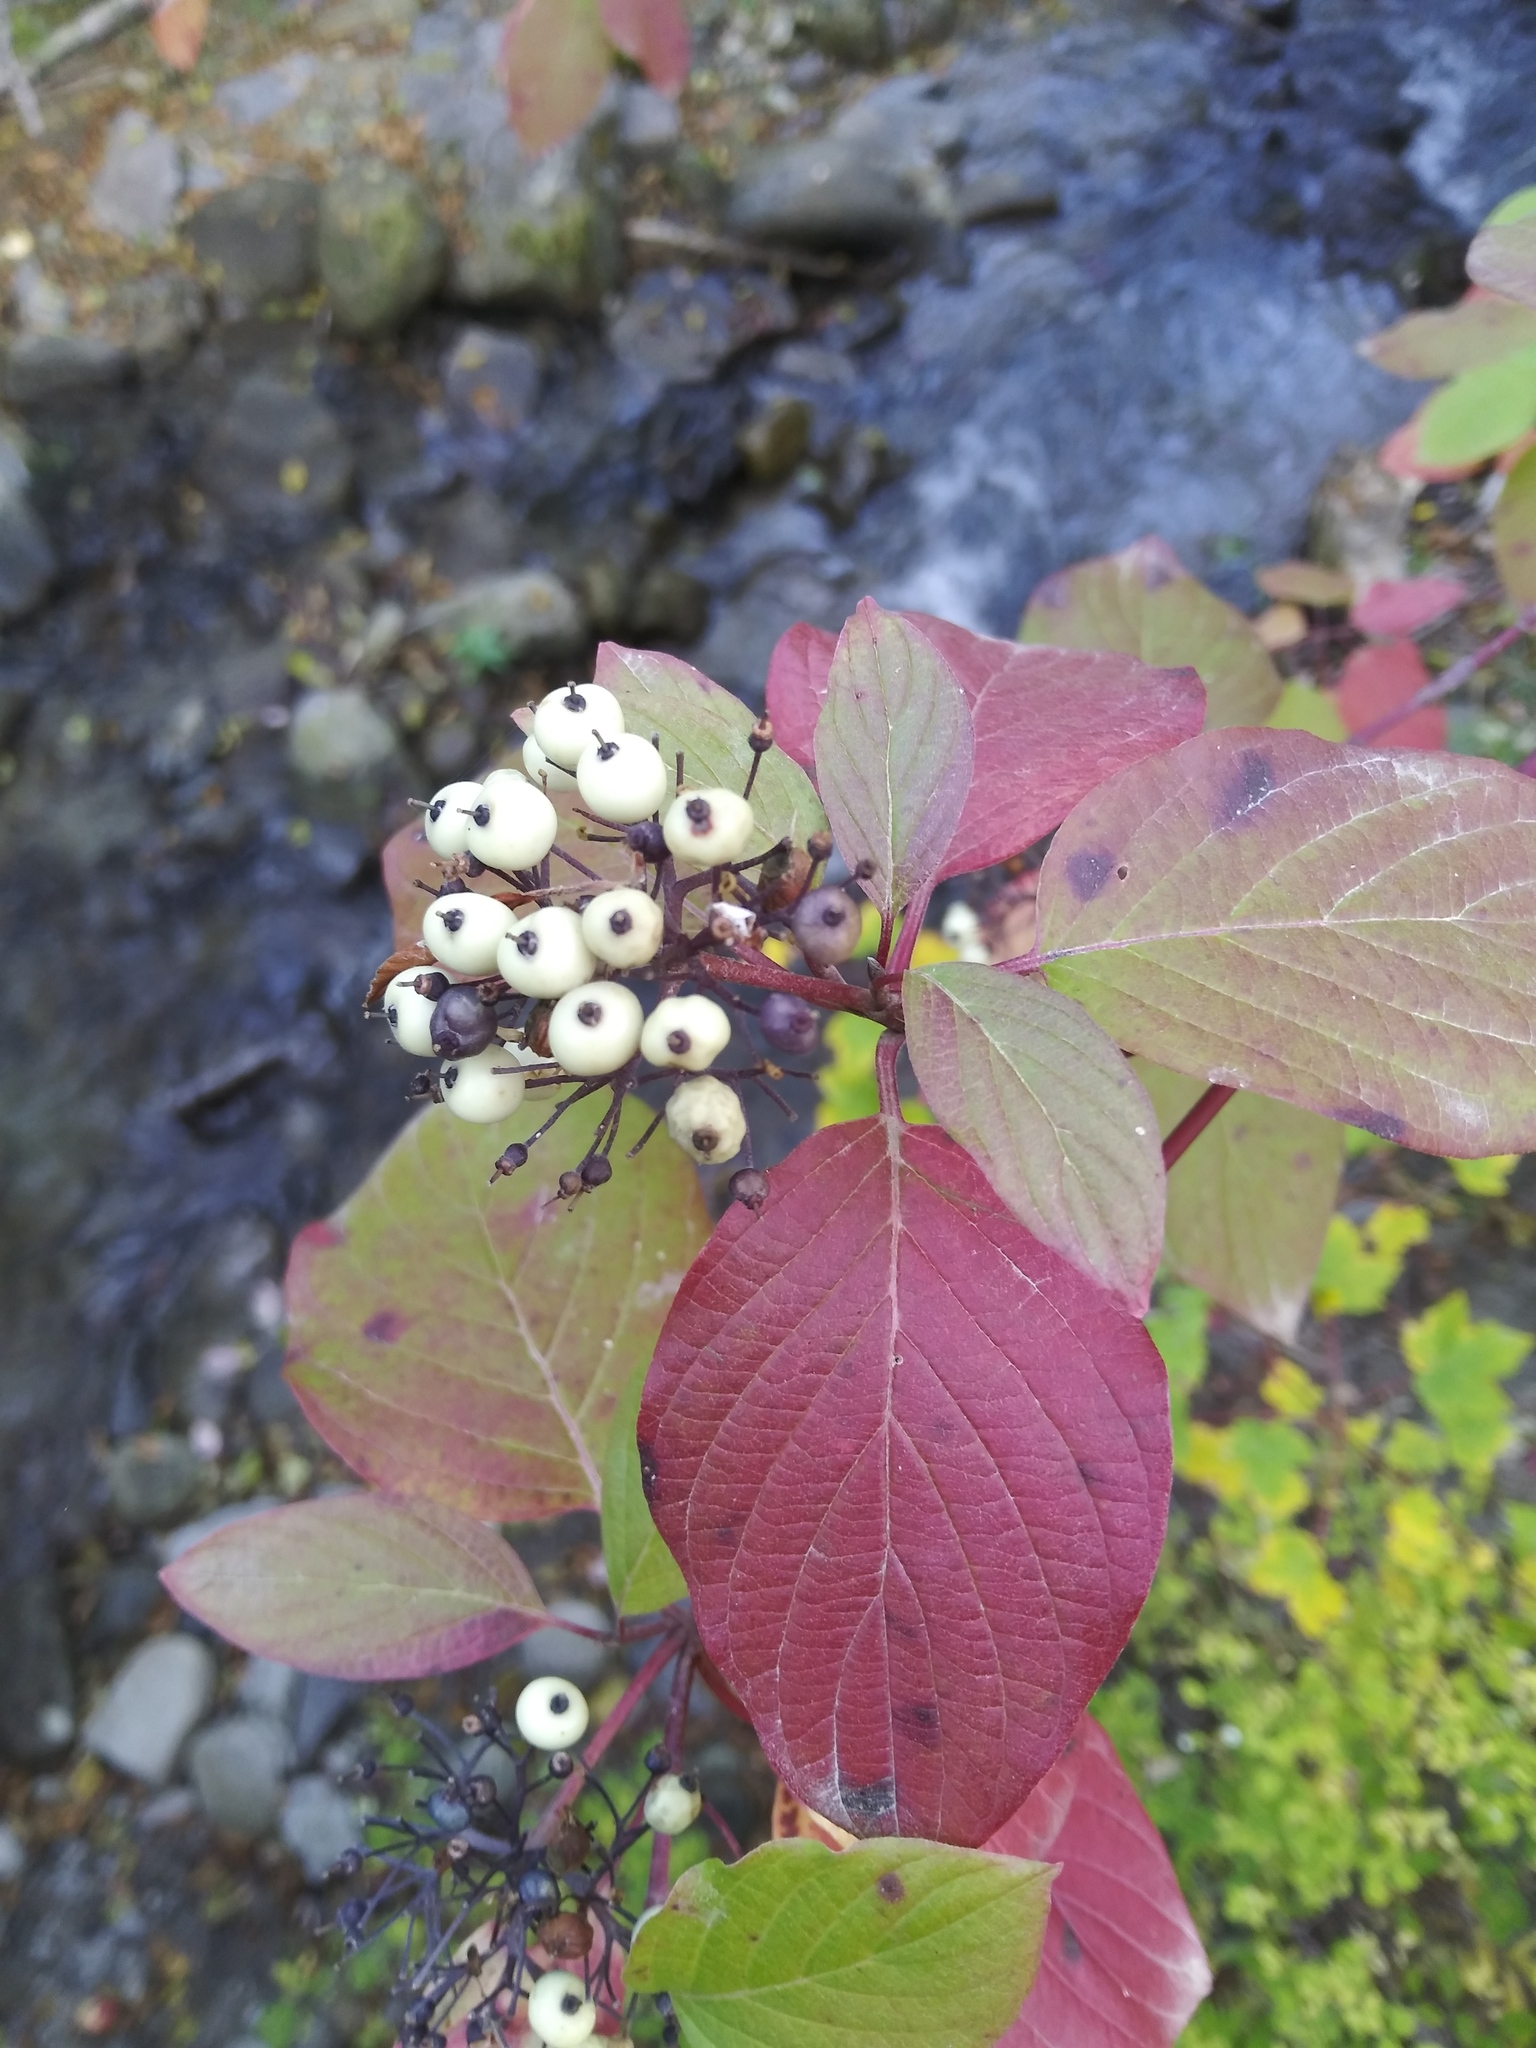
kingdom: Plantae
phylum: Tracheophyta
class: Magnoliopsida
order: Cornales
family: Cornaceae
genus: Cornus
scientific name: Cornus sericea
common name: Red-osier dogwood
